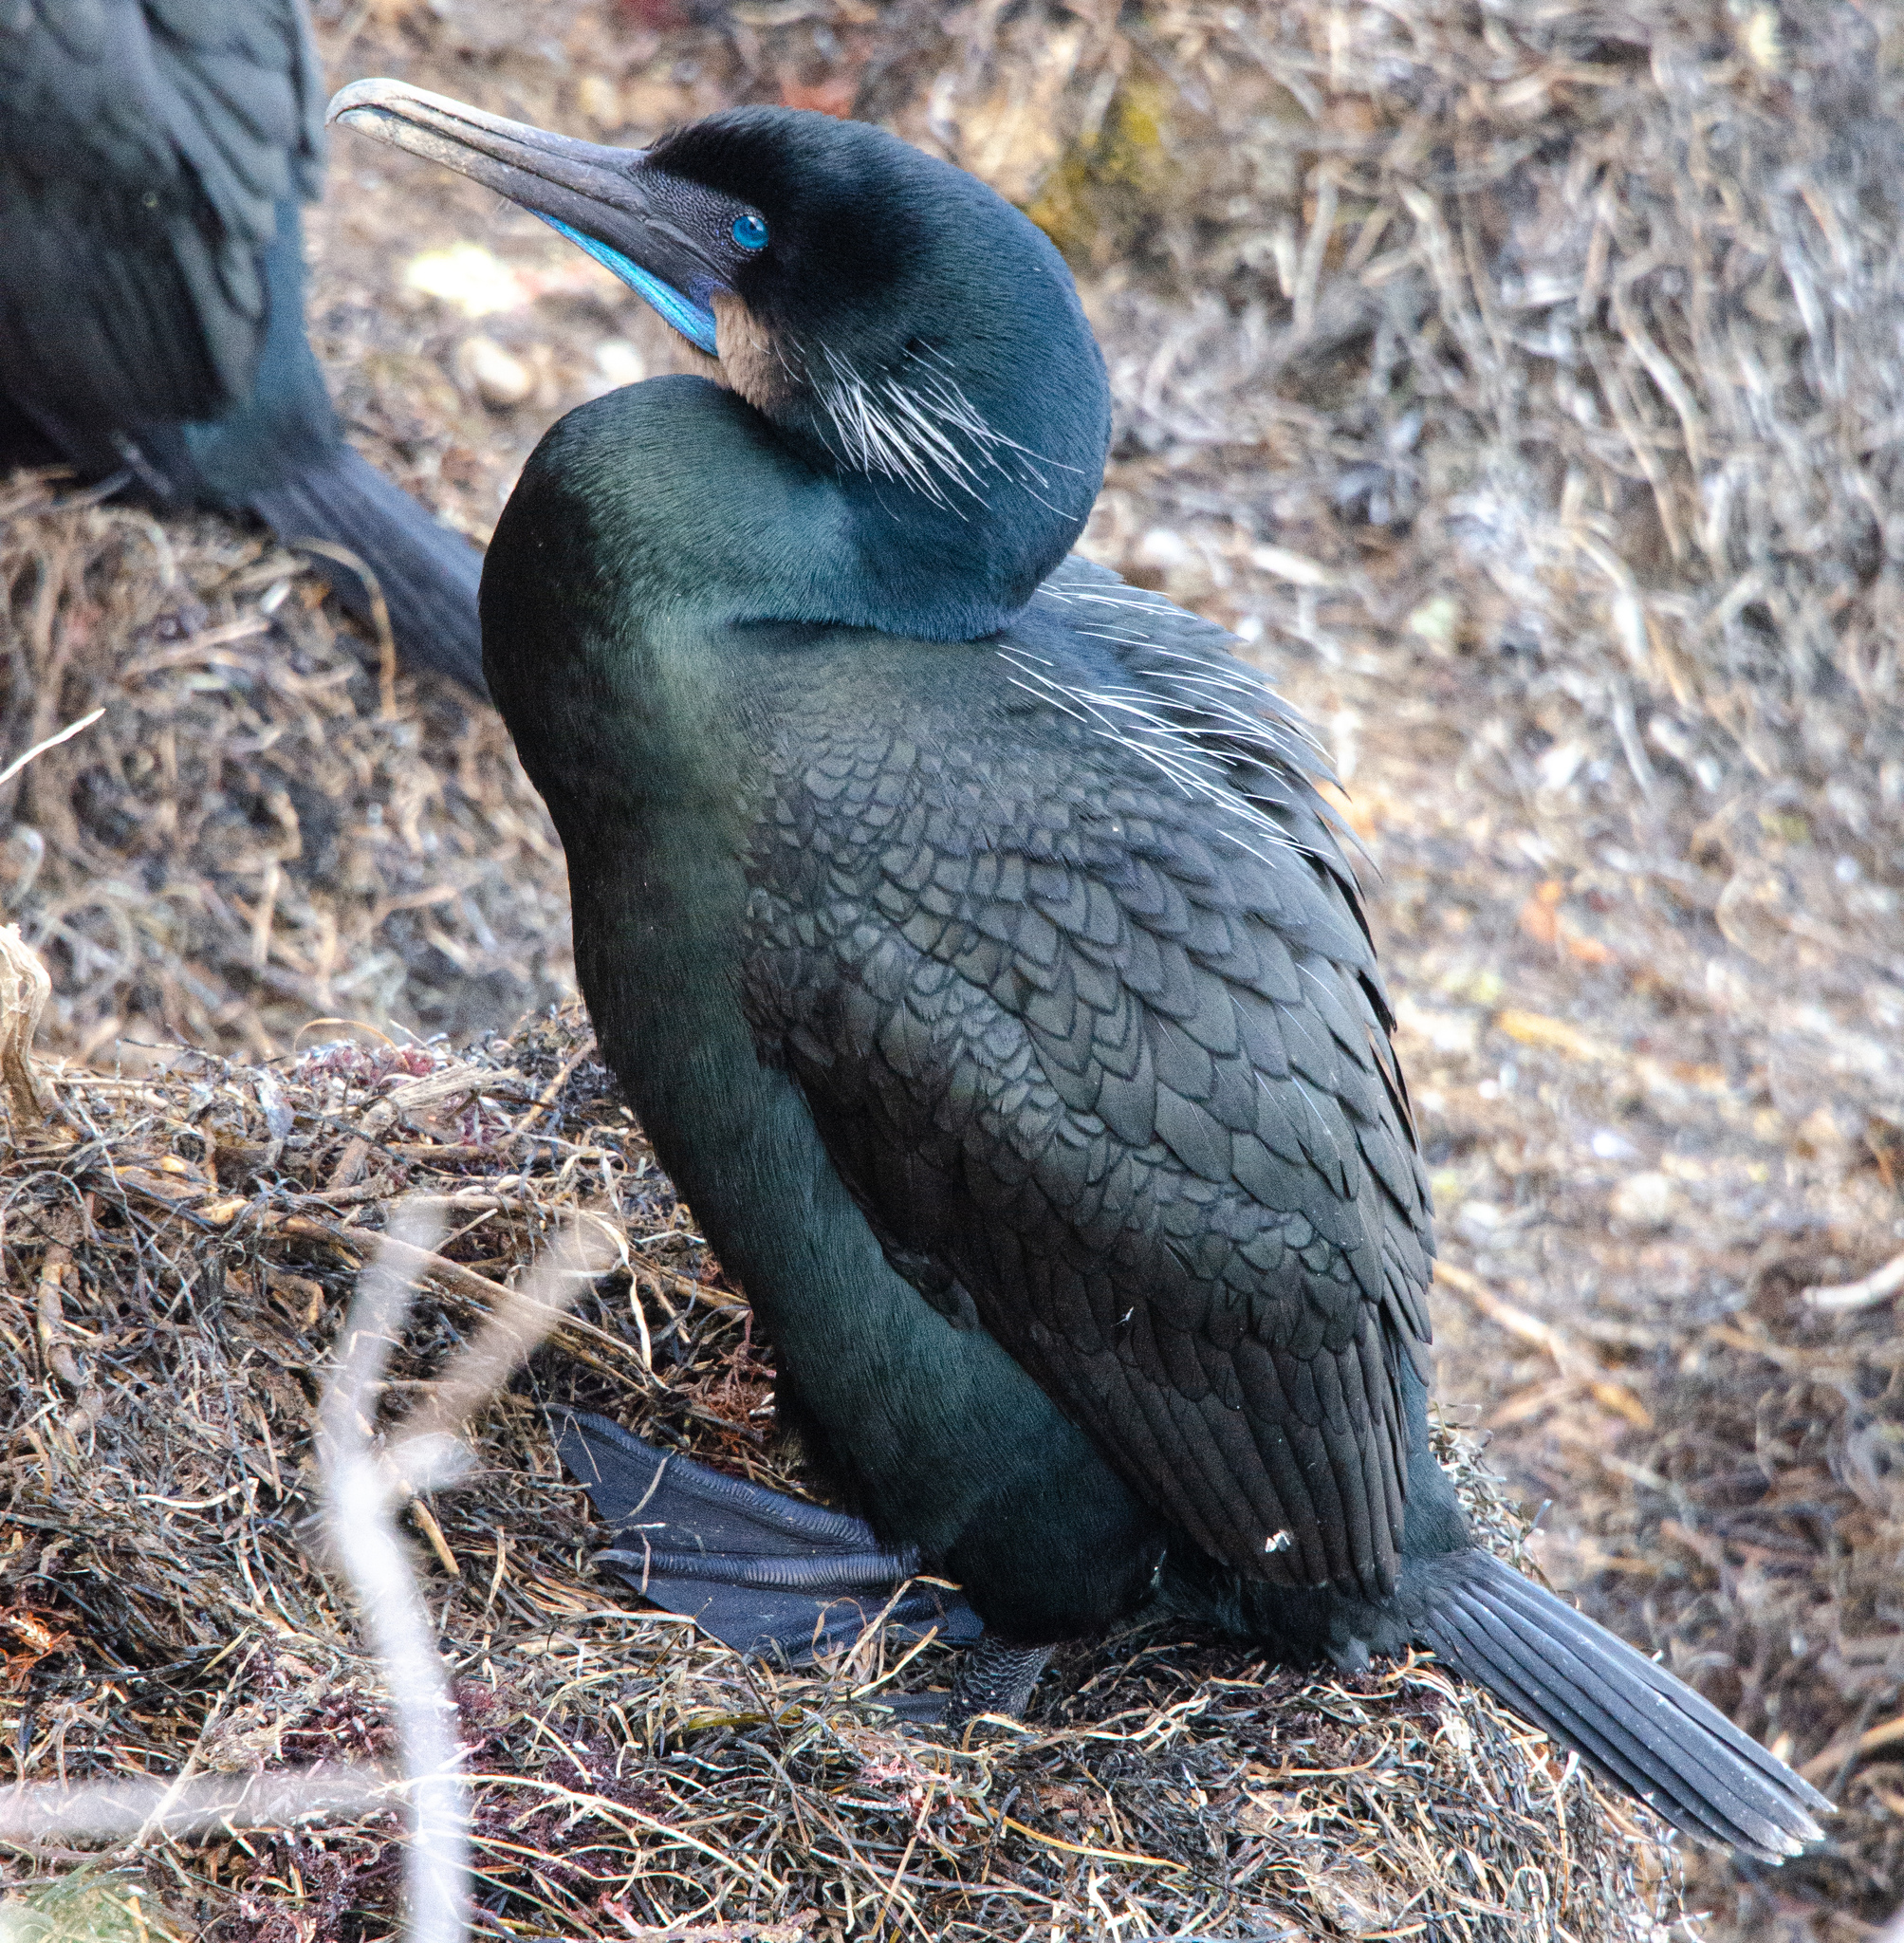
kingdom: Animalia
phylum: Chordata
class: Aves
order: Suliformes
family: Phalacrocoracidae
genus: Urile
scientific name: Urile penicillatus
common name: Brandt's cormorant
